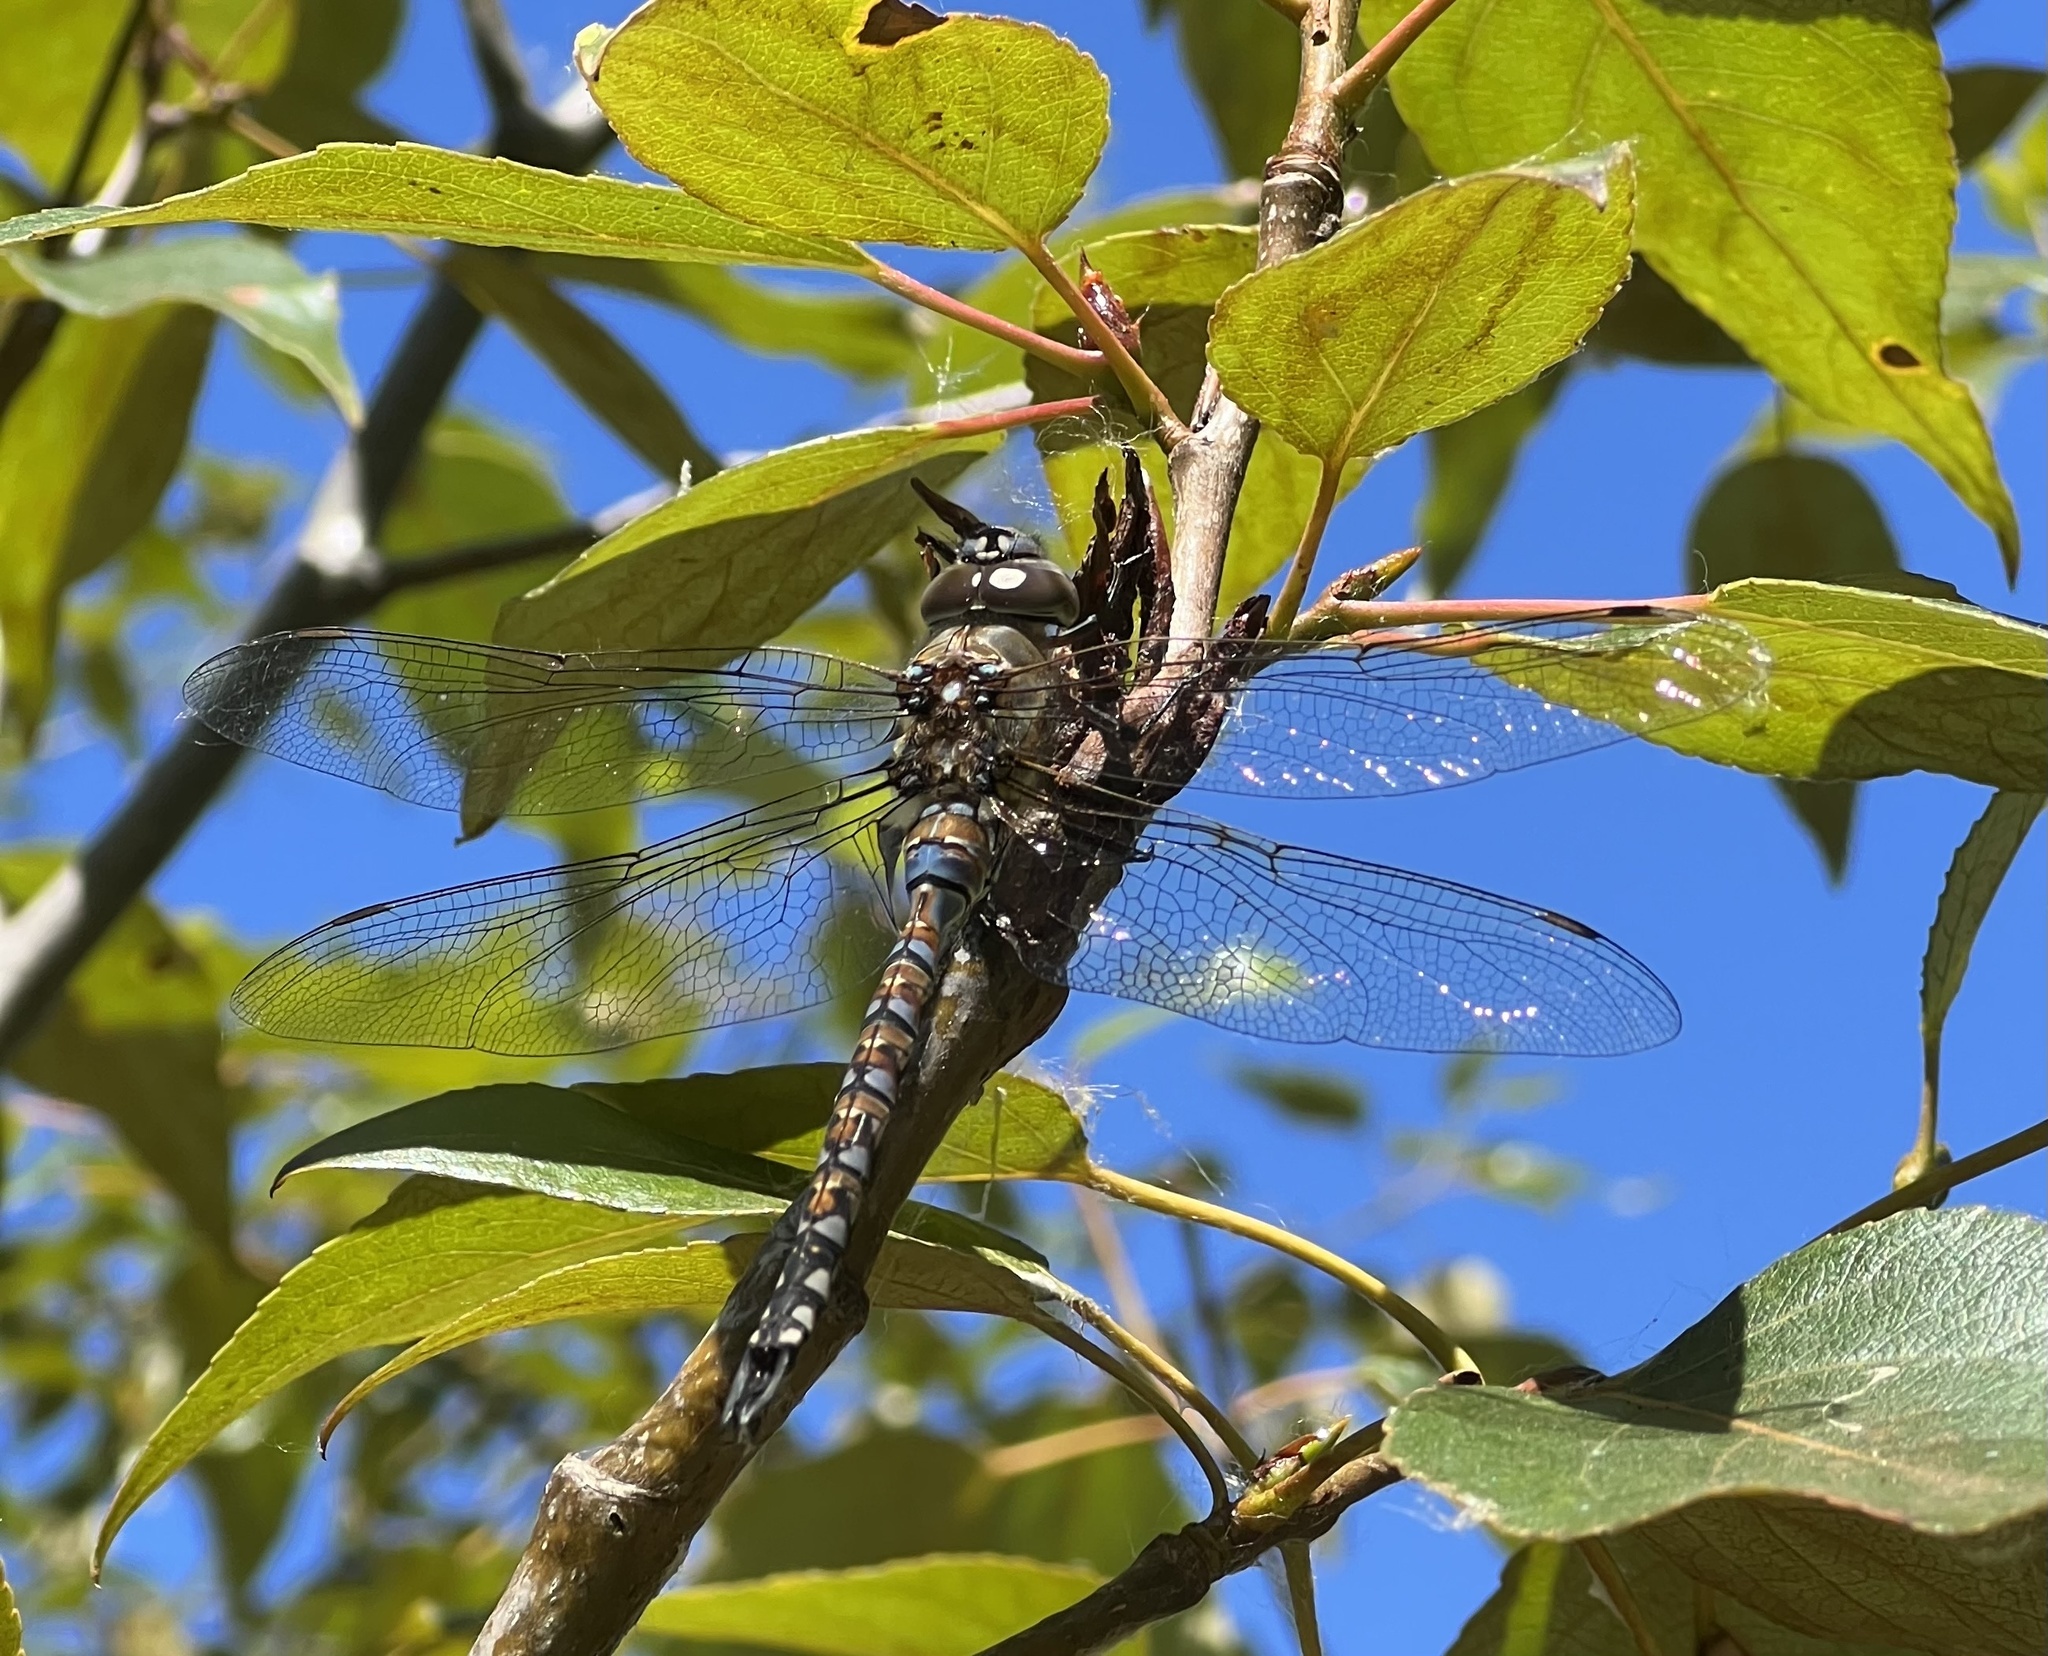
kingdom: Animalia
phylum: Arthropoda
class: Insecta
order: Odonata
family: Aeshnidae
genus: Rhionaeschna
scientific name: Rhionaeschna multicolor
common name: Blue-eyed darner
